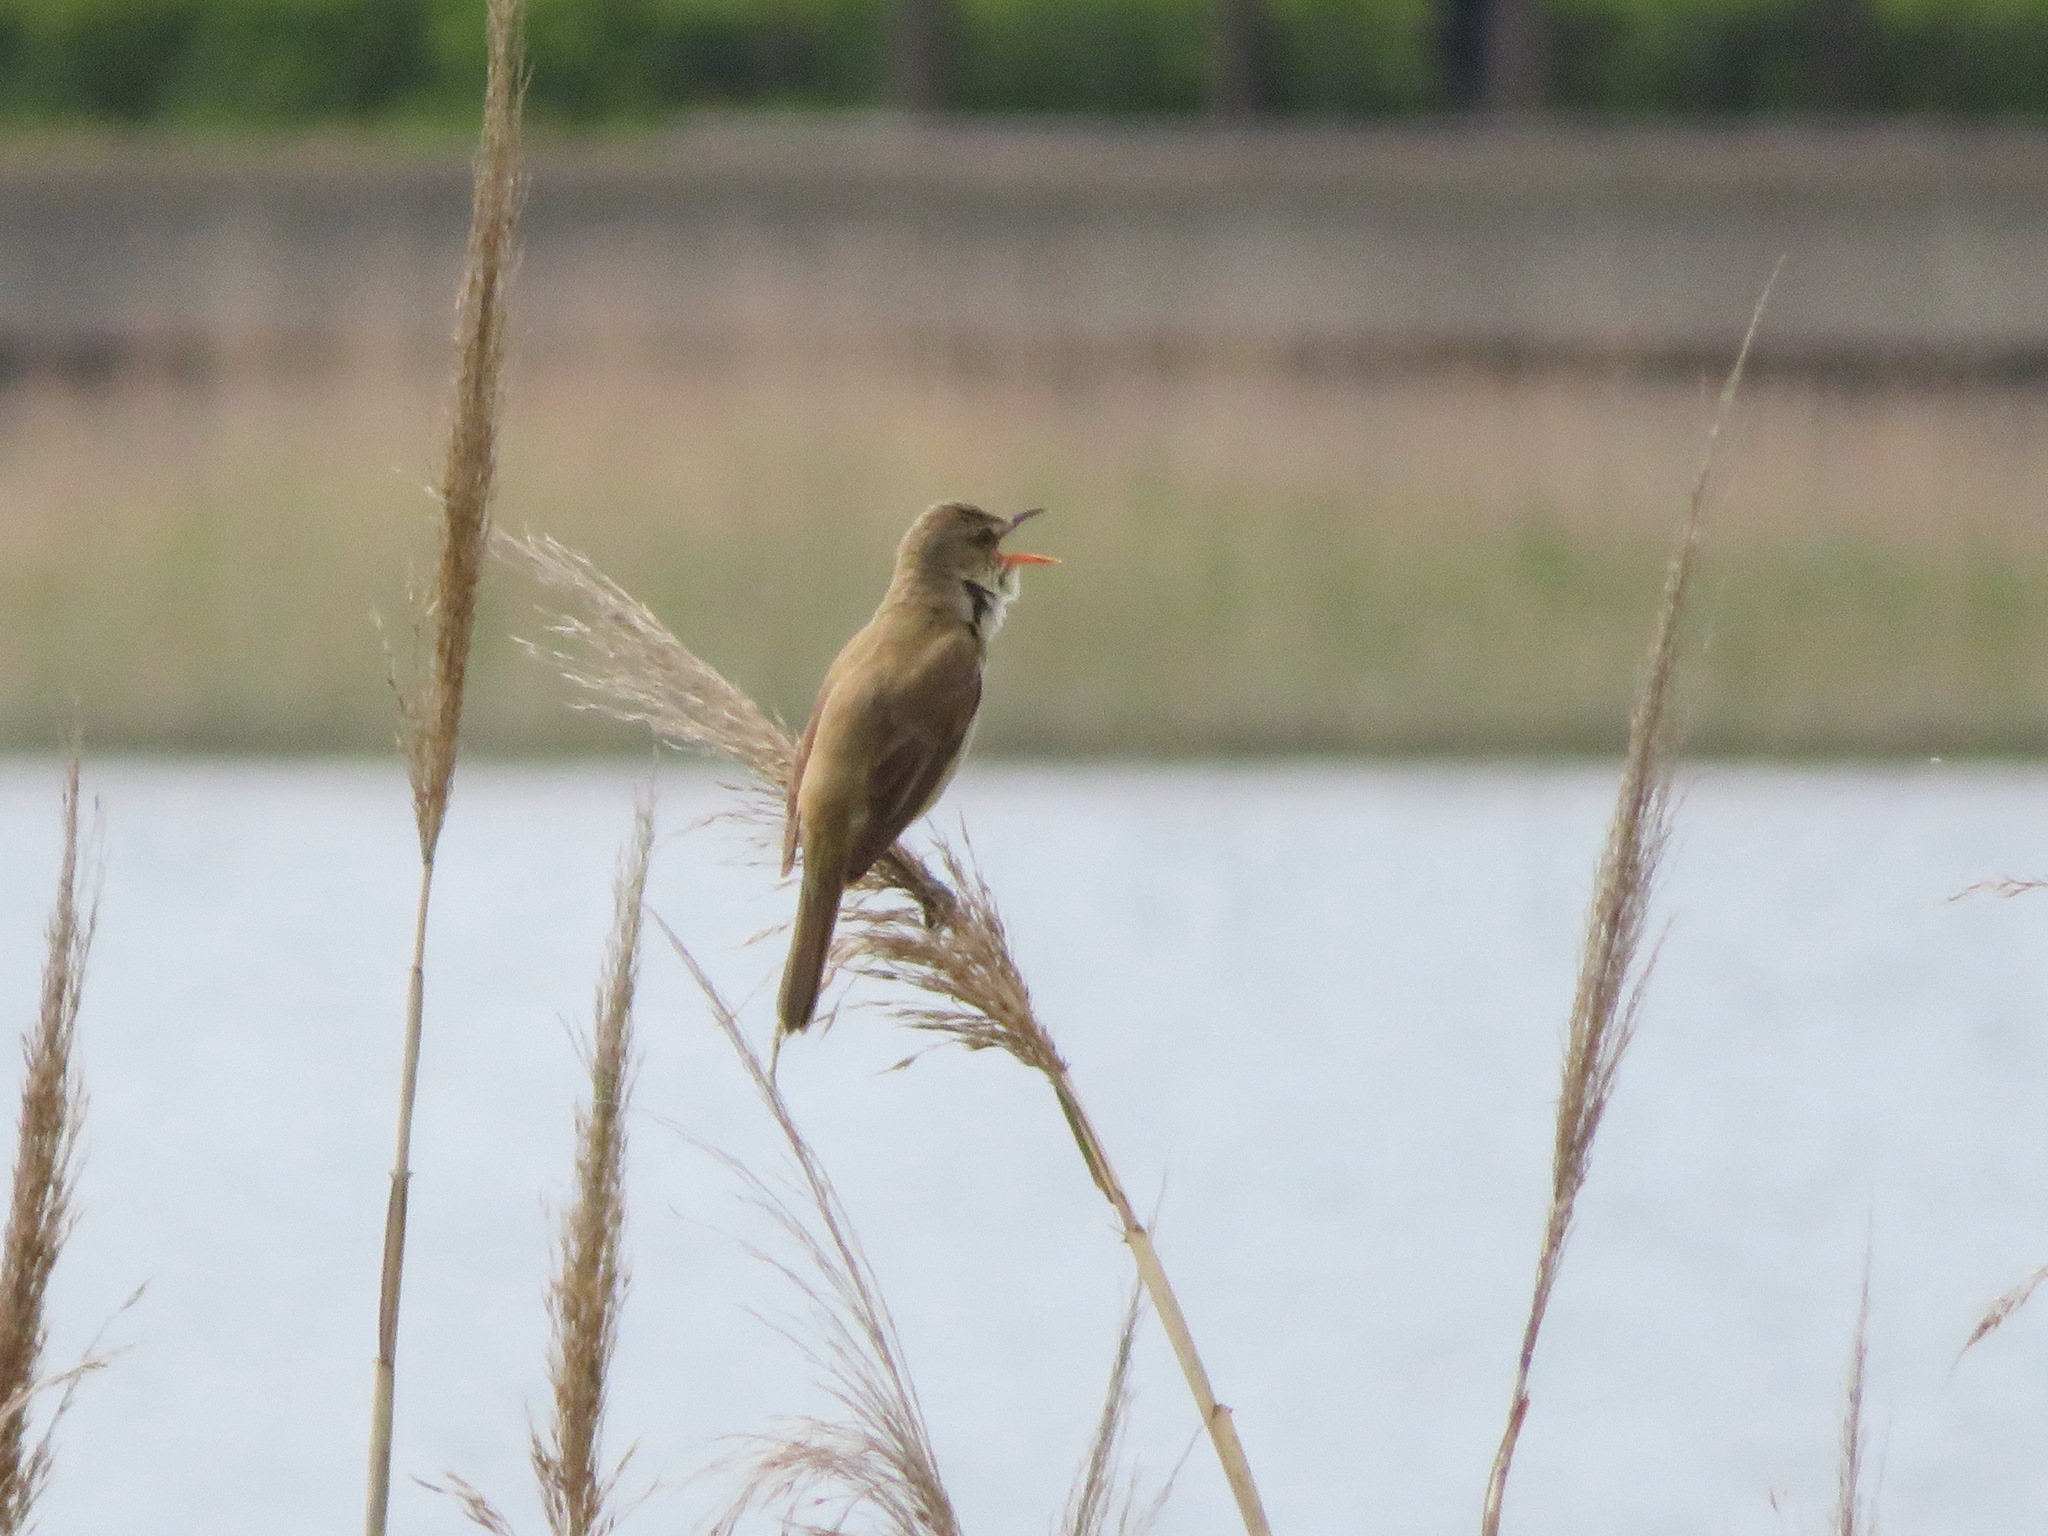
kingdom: Animalia
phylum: Chordata
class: Aves
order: Passeriformes
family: Acrocephalidae
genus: Acrocephalus
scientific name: Acrocephalus orientalis
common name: Oriental reed warbler
